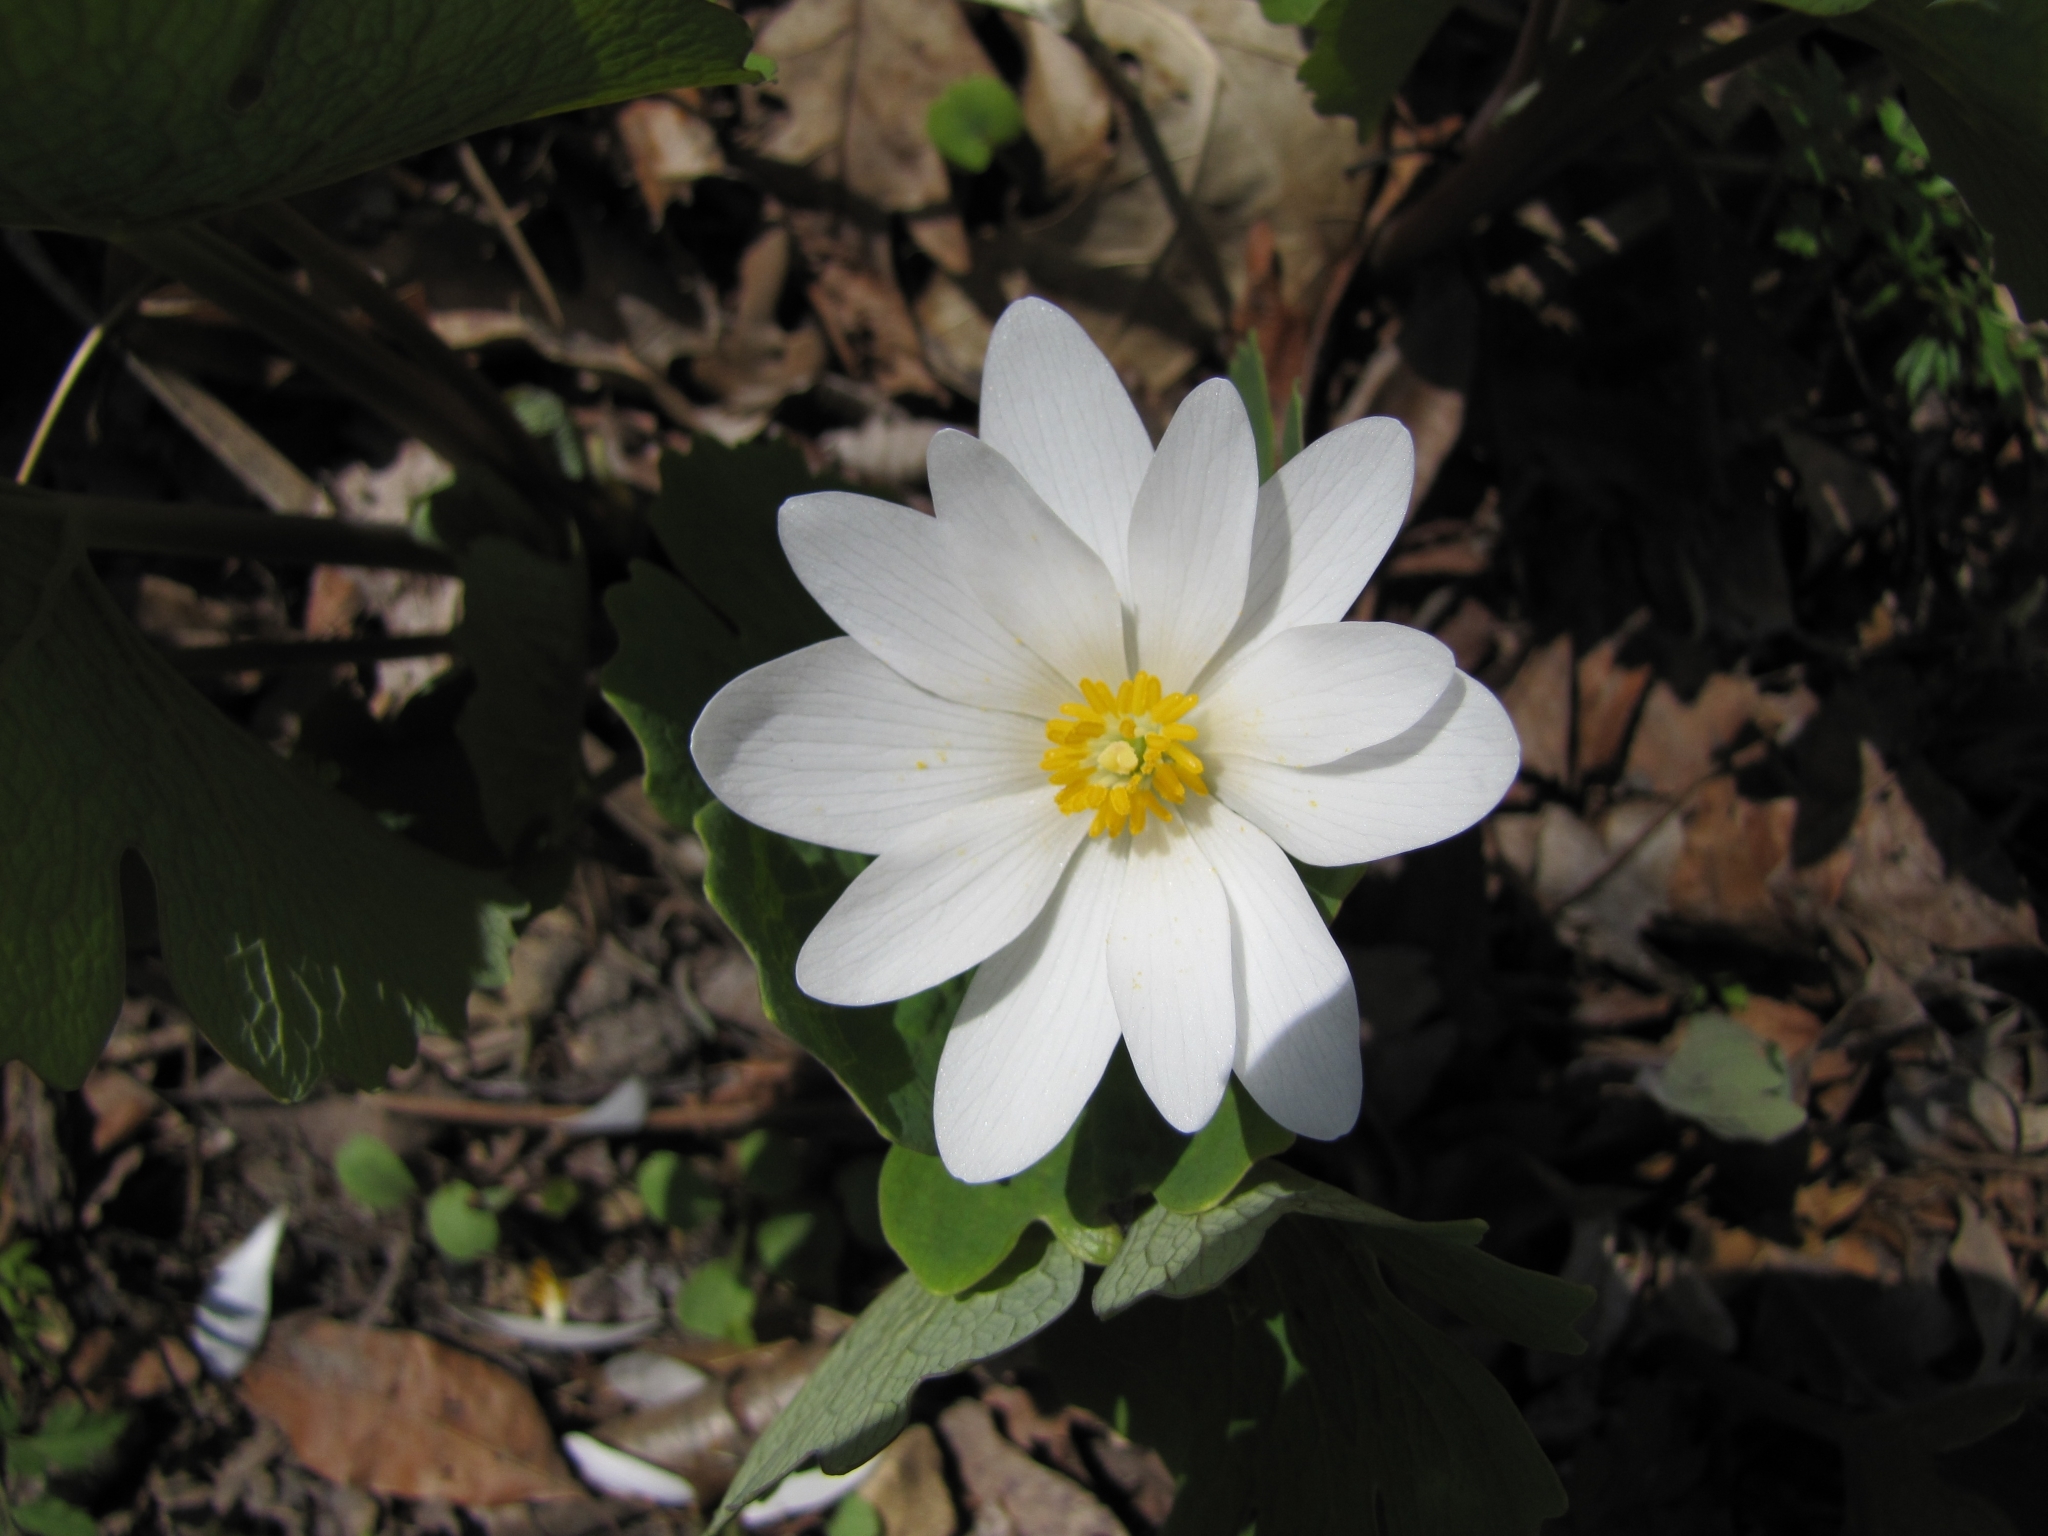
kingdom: Plantae
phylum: Tracheophyta
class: Magnoliopsida
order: Ranunculales
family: Papaveraceae
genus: Sanguinaria
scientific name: Sanguinaria canadensis
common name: Bloodroot
